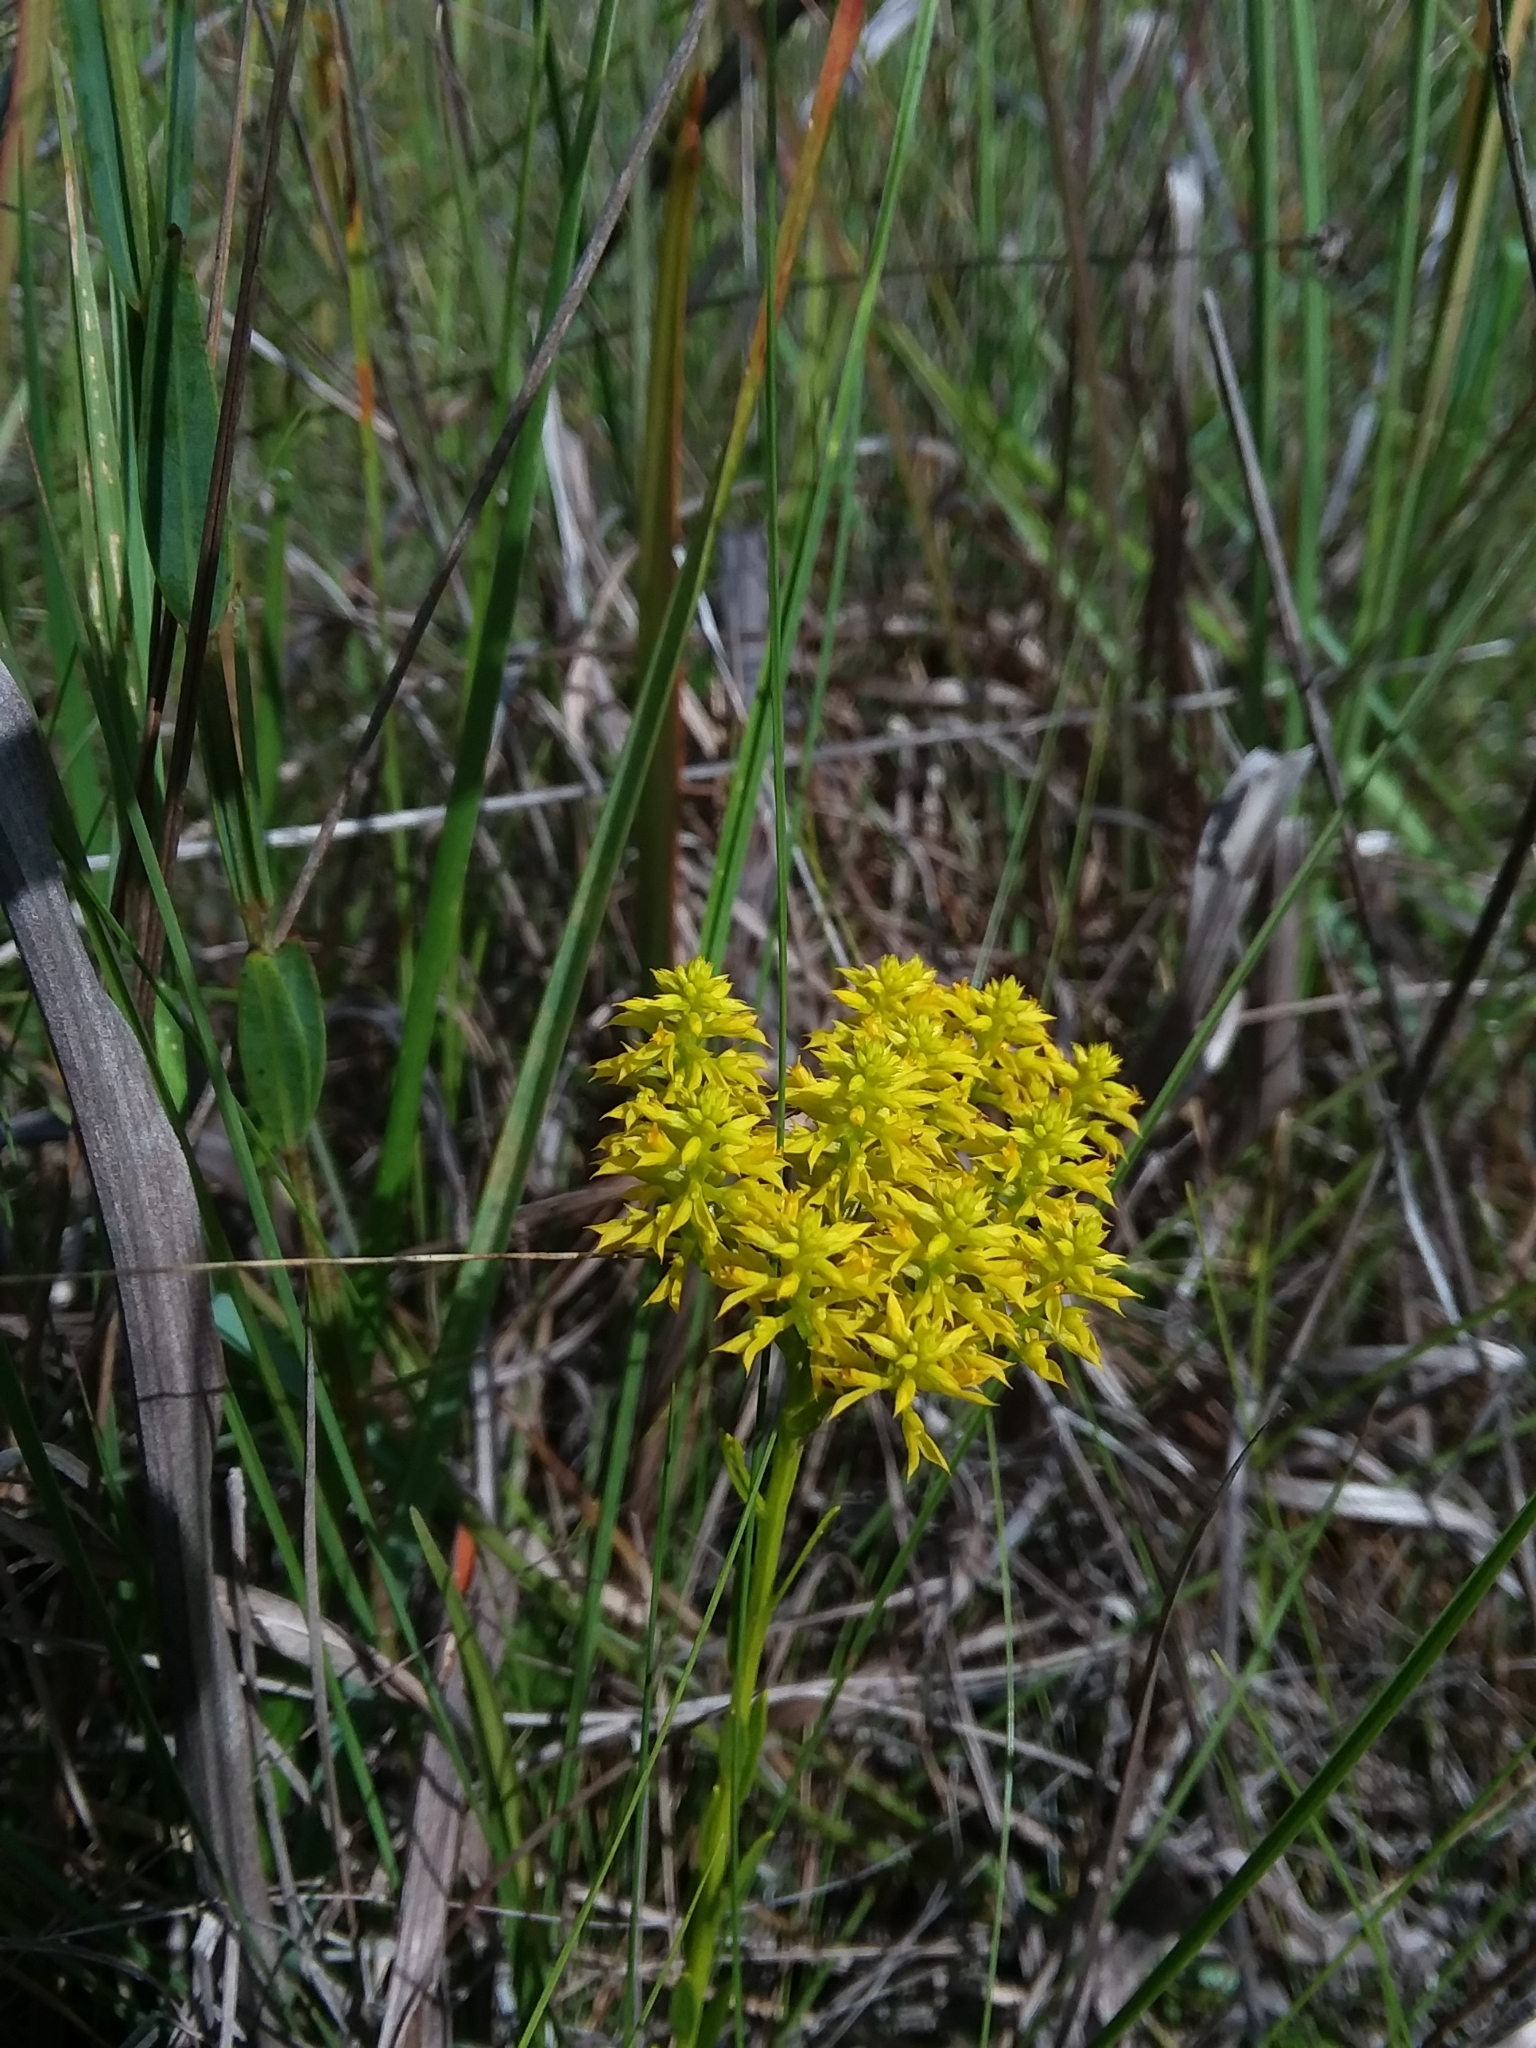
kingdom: Plantae
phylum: Tracheophyta
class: Magnoliopsida
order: Fabales
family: Polygalaceae
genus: Polygala
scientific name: Polygala ramosa
